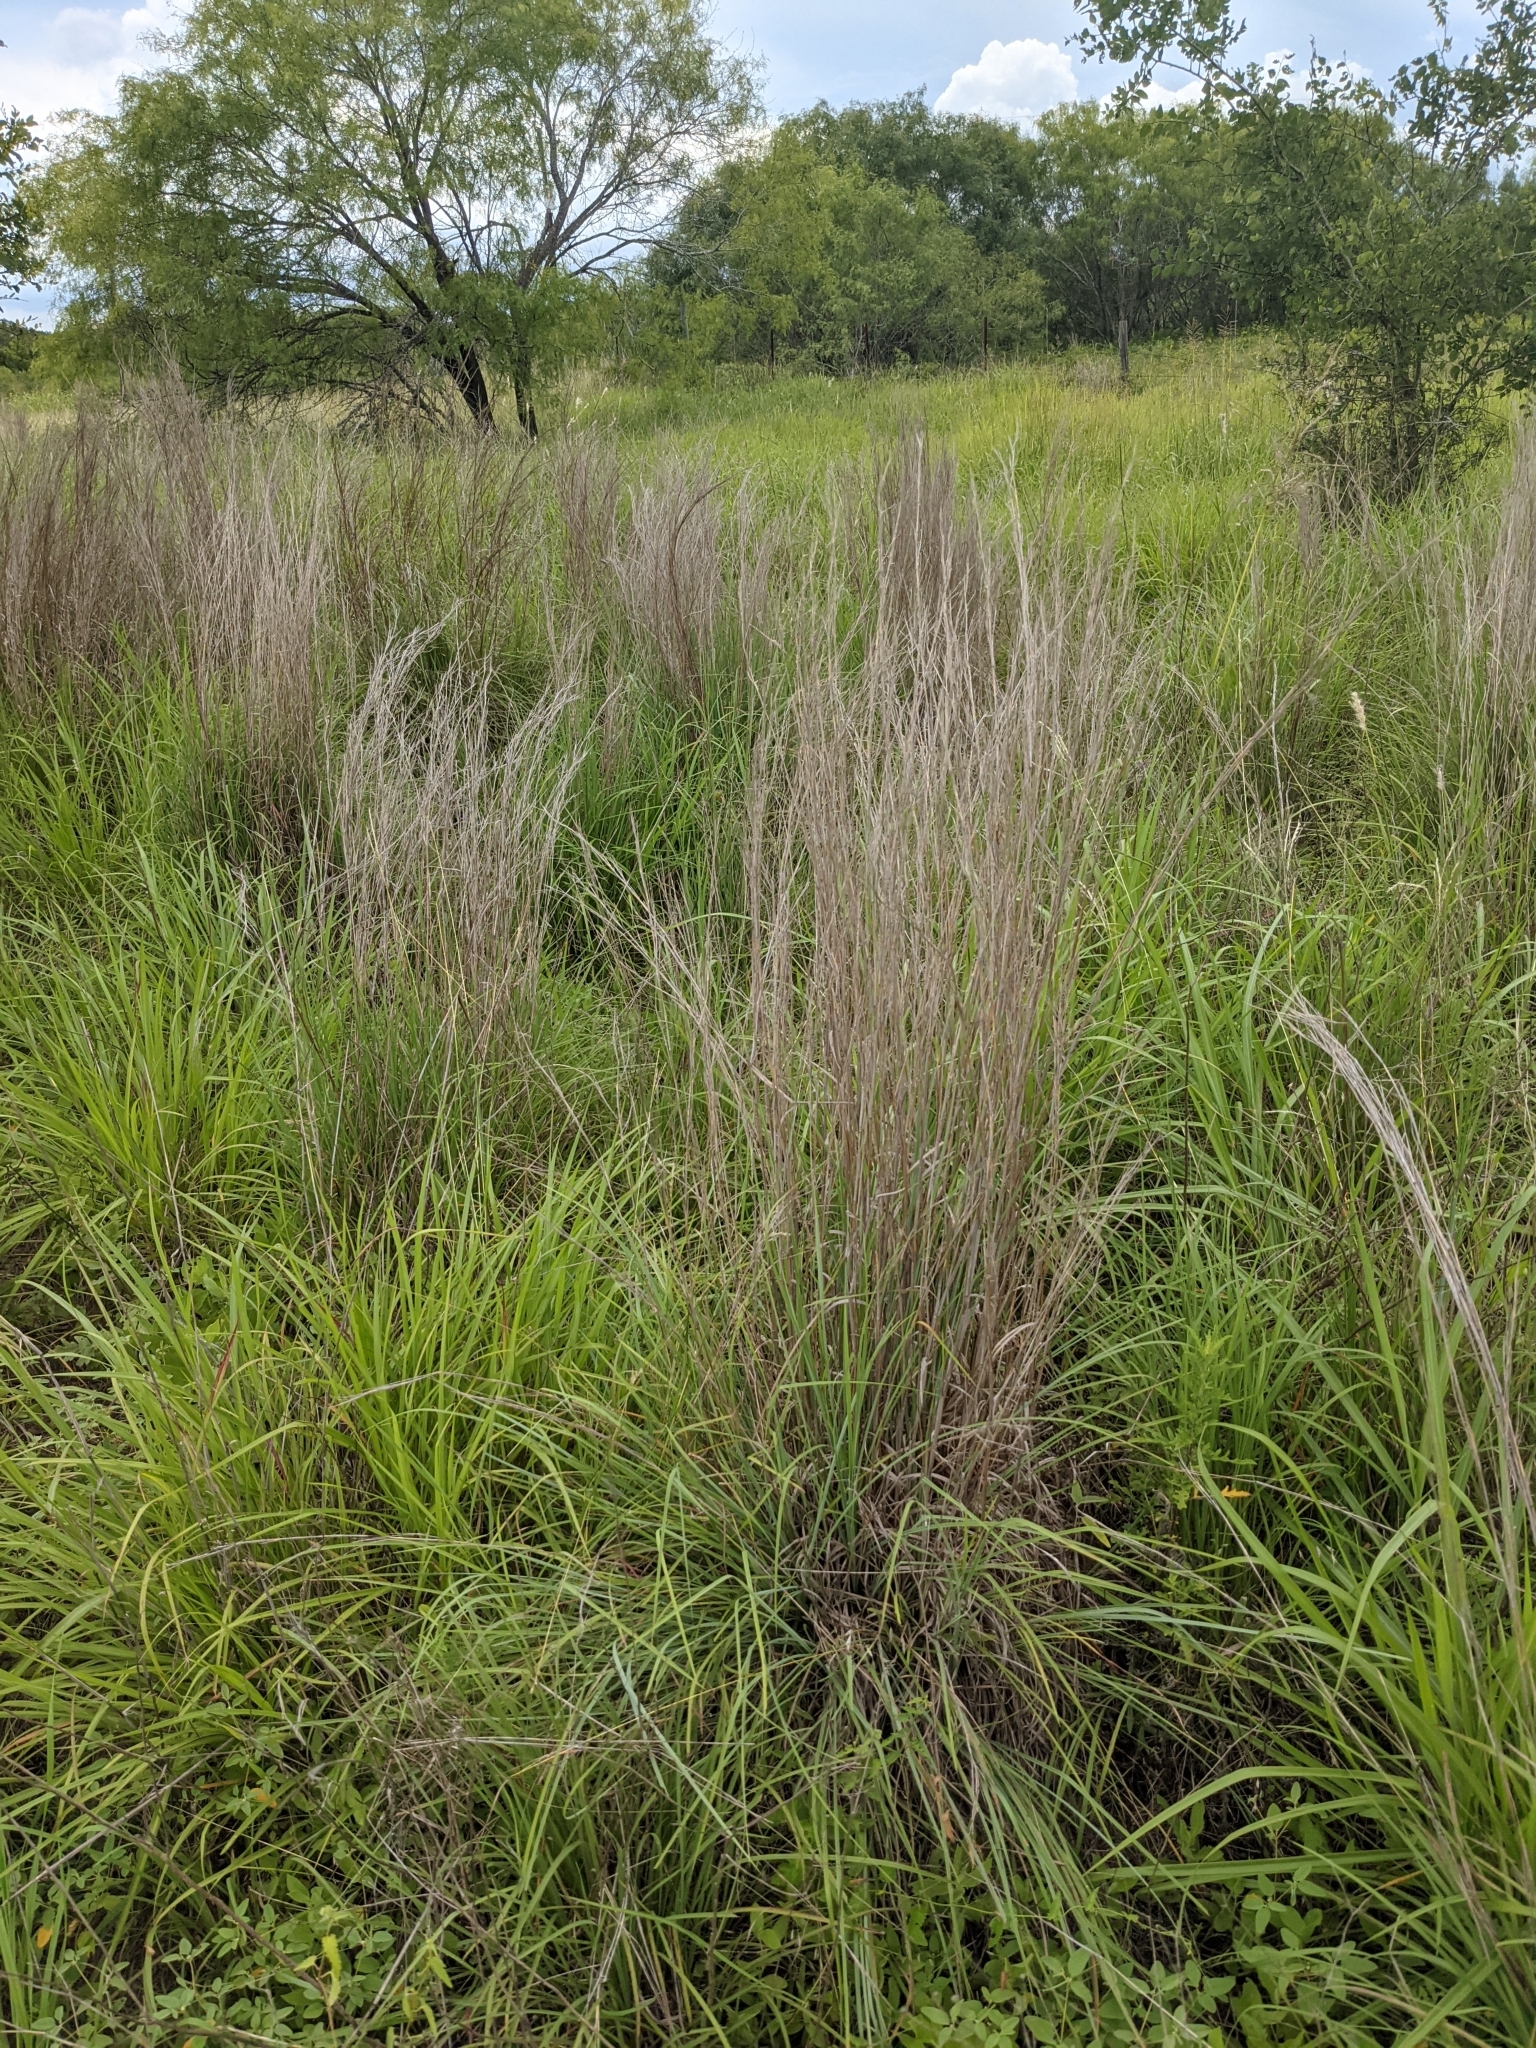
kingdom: Plantae
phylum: Tracheophyta
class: Liliopsida
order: Poales
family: Poaceae
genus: Schizachyrium
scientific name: Schizachyrium scoparium
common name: Little bluestem
